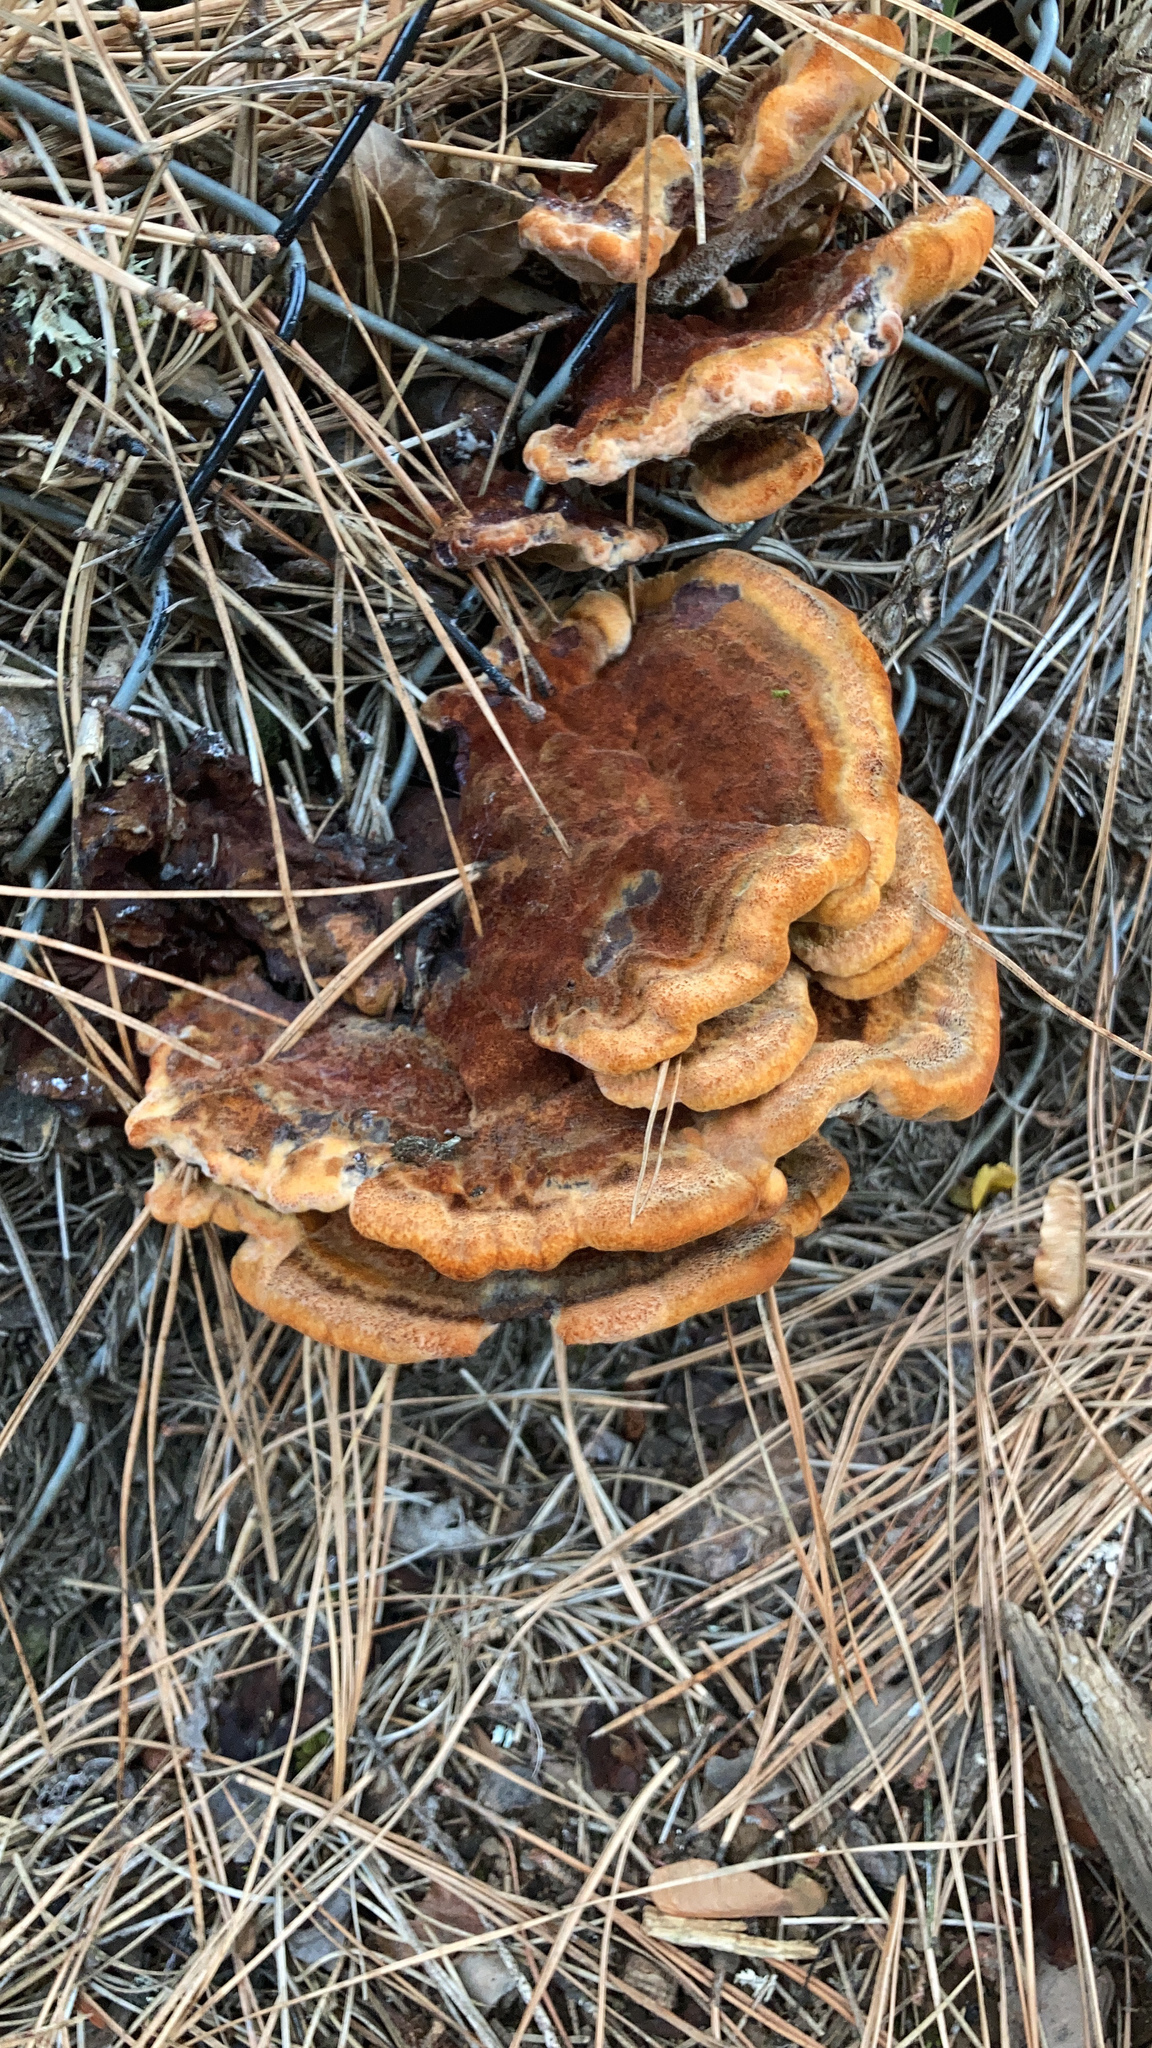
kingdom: Fungi
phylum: Basidiomycota
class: Agaricomycetes
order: Polyporales
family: Laetiporaceae
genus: Phaeolus
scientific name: Phaeolus schweinitzii
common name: Dyer's mazegill
